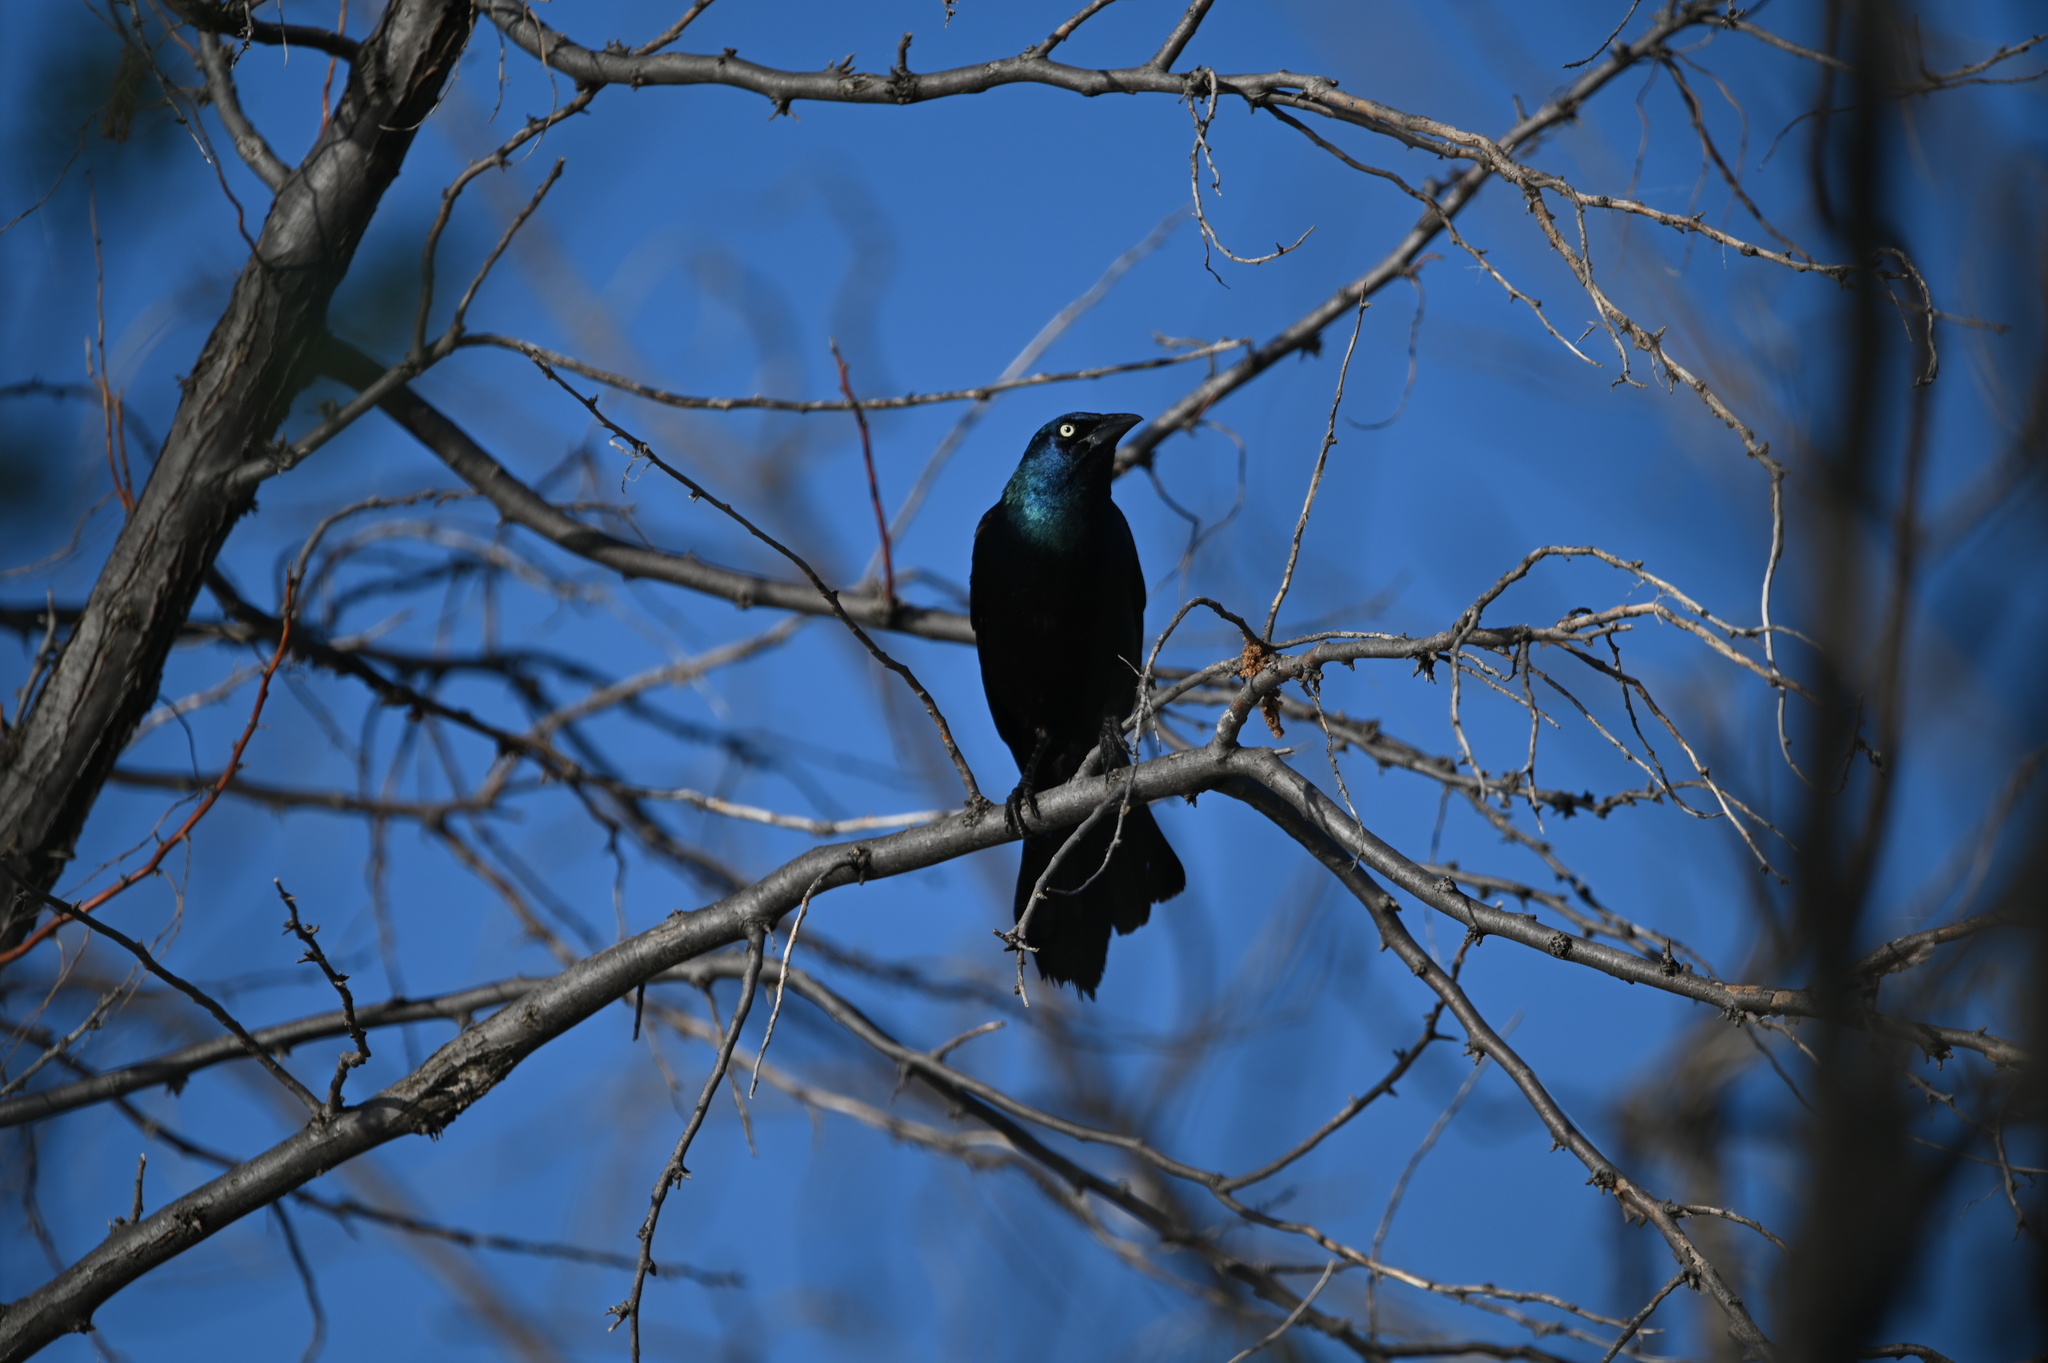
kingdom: Animalia
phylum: Chordata
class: Aves
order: Passeriformes
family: Icteridae
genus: Quiscalus
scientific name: Quiscalus quiscula
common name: Common grackle
